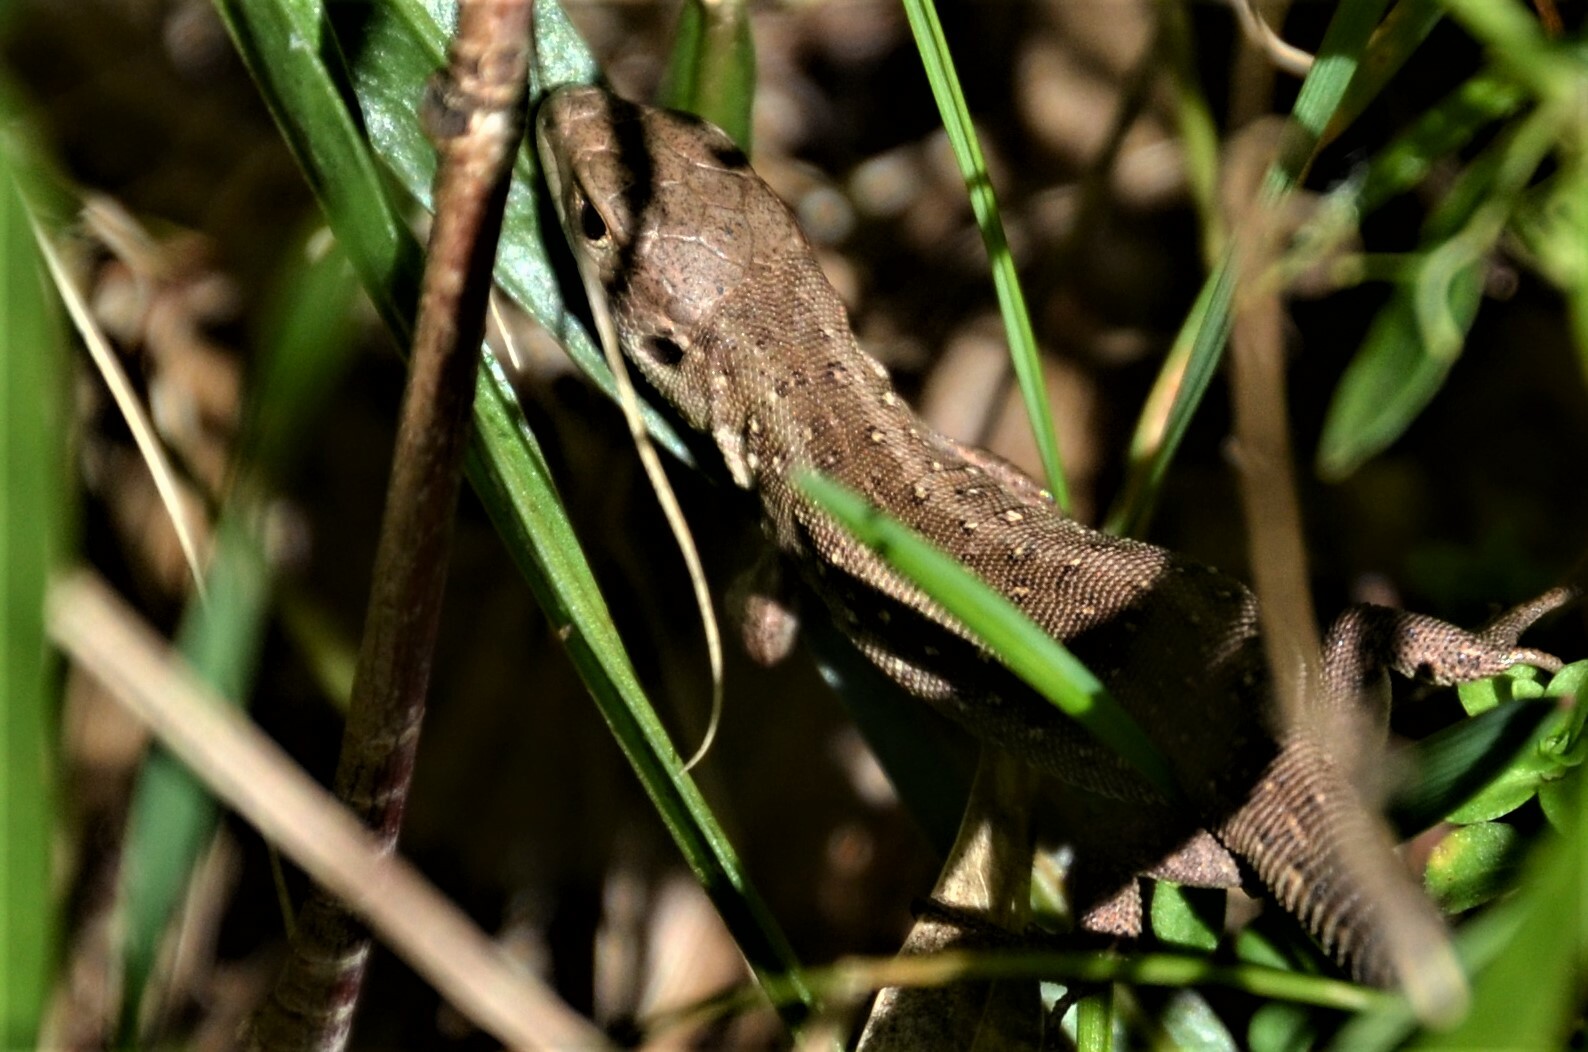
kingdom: Animalia
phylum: Chordata
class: Squamata
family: Lacertidae
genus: Lacerta
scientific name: Lacerta agilis
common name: Sand lizard
